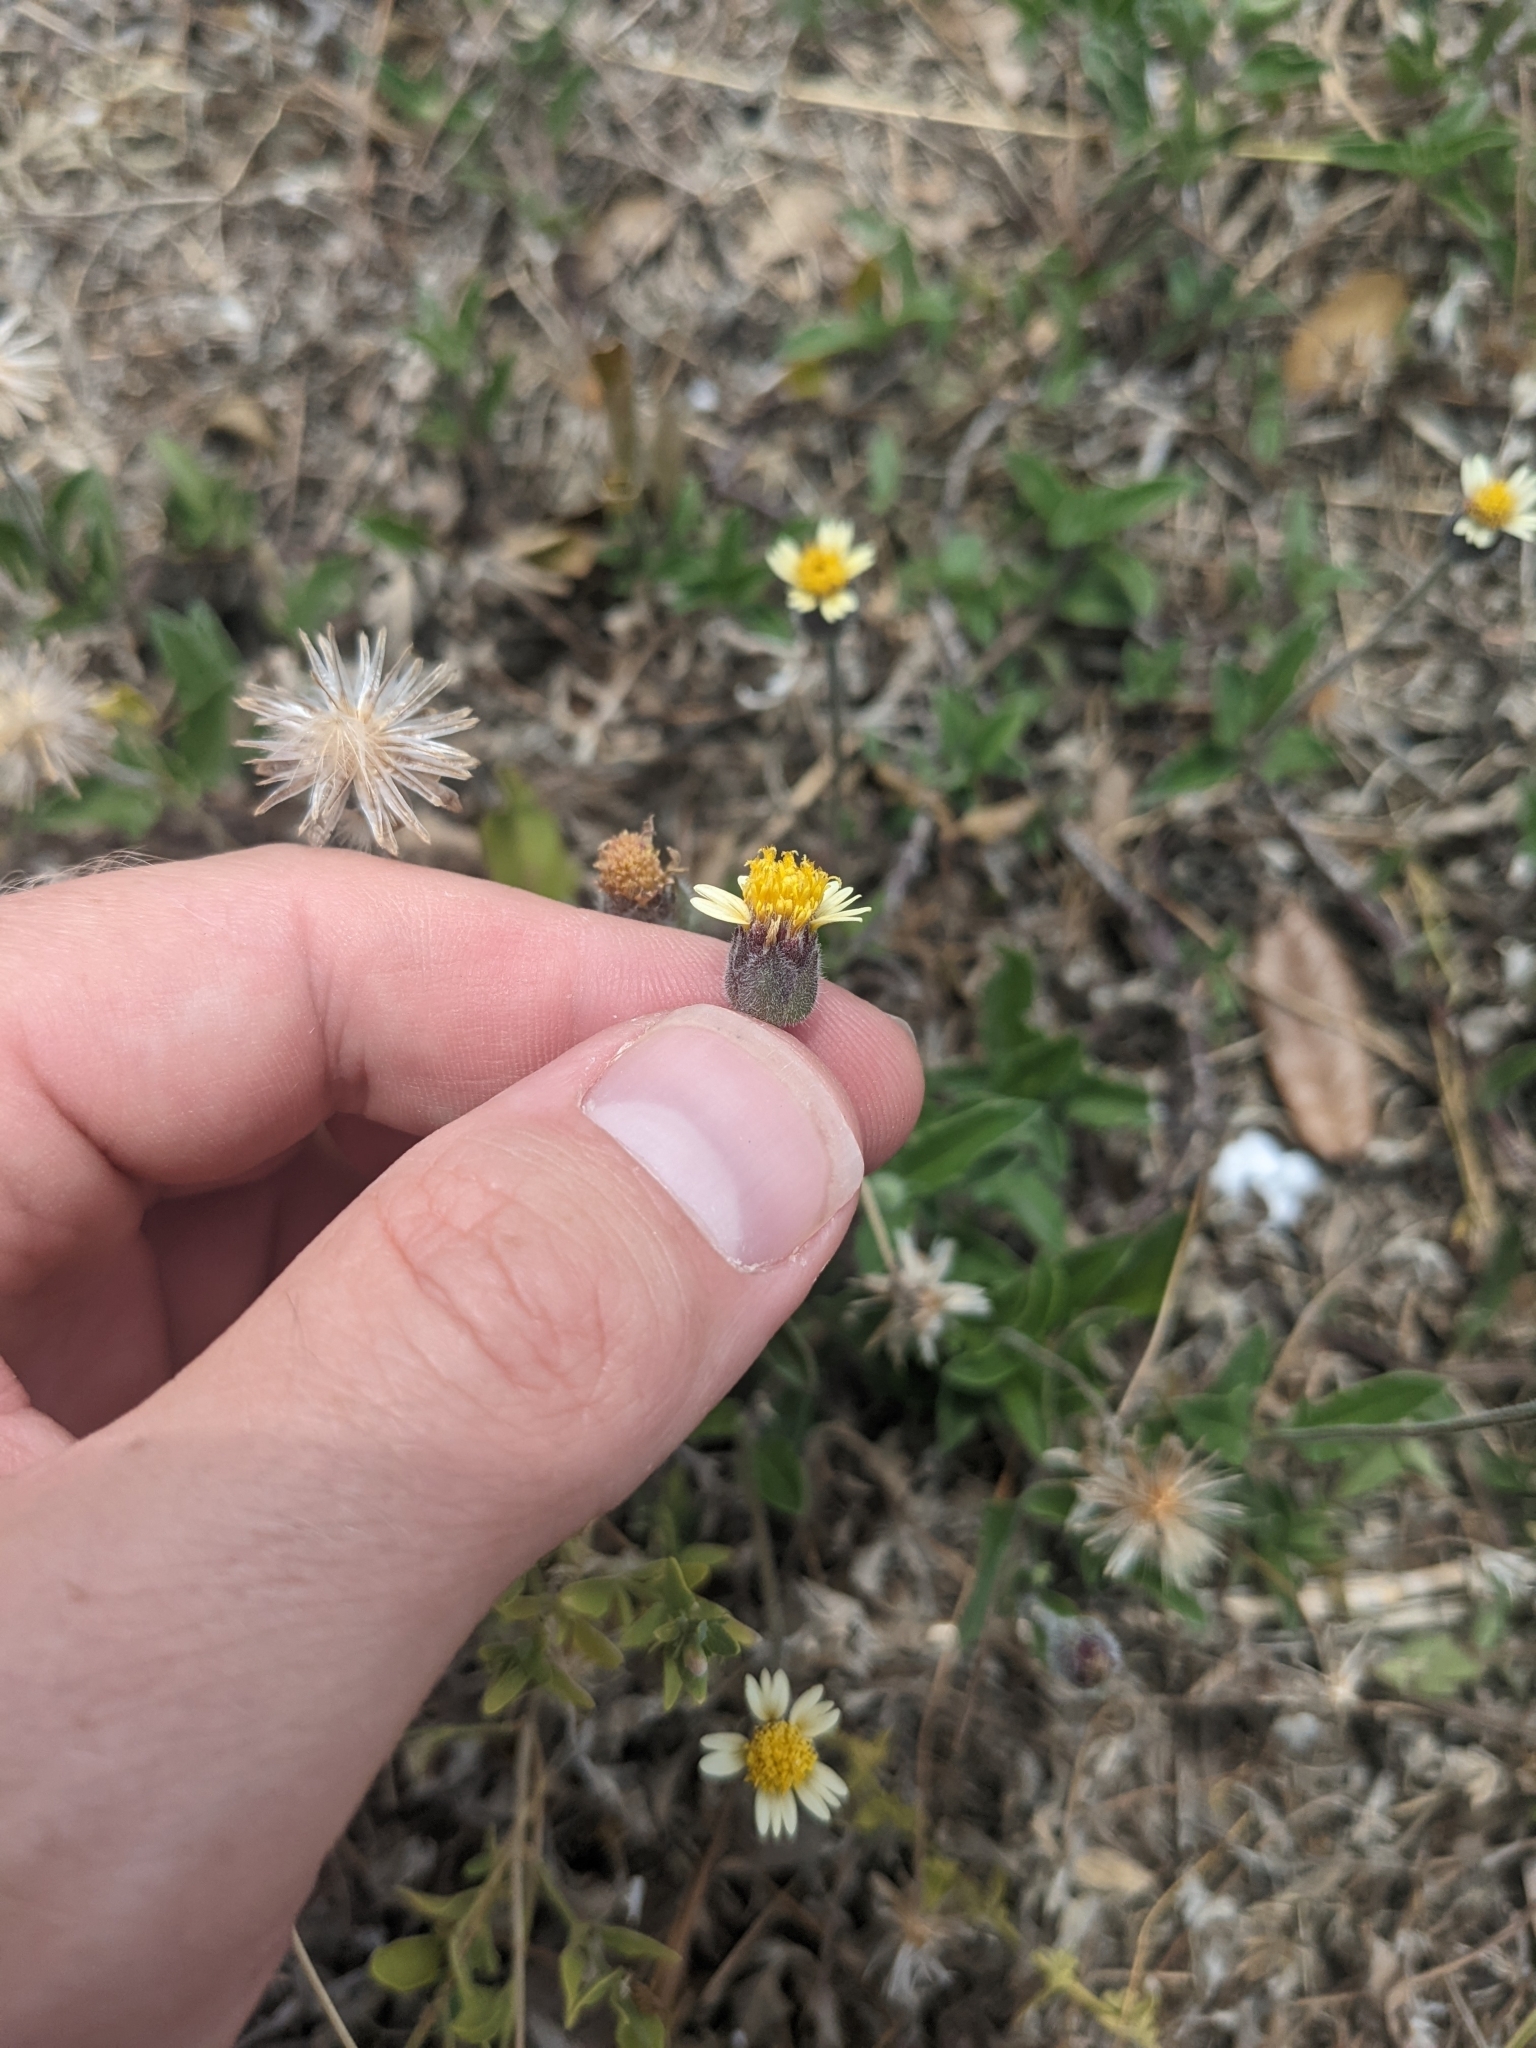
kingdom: Plantae
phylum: Tracheophyta
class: Magnoliopsida
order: Asterales
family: Asteraceae
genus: Tridax
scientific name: Tridax procumbens
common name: Coatbuttons
